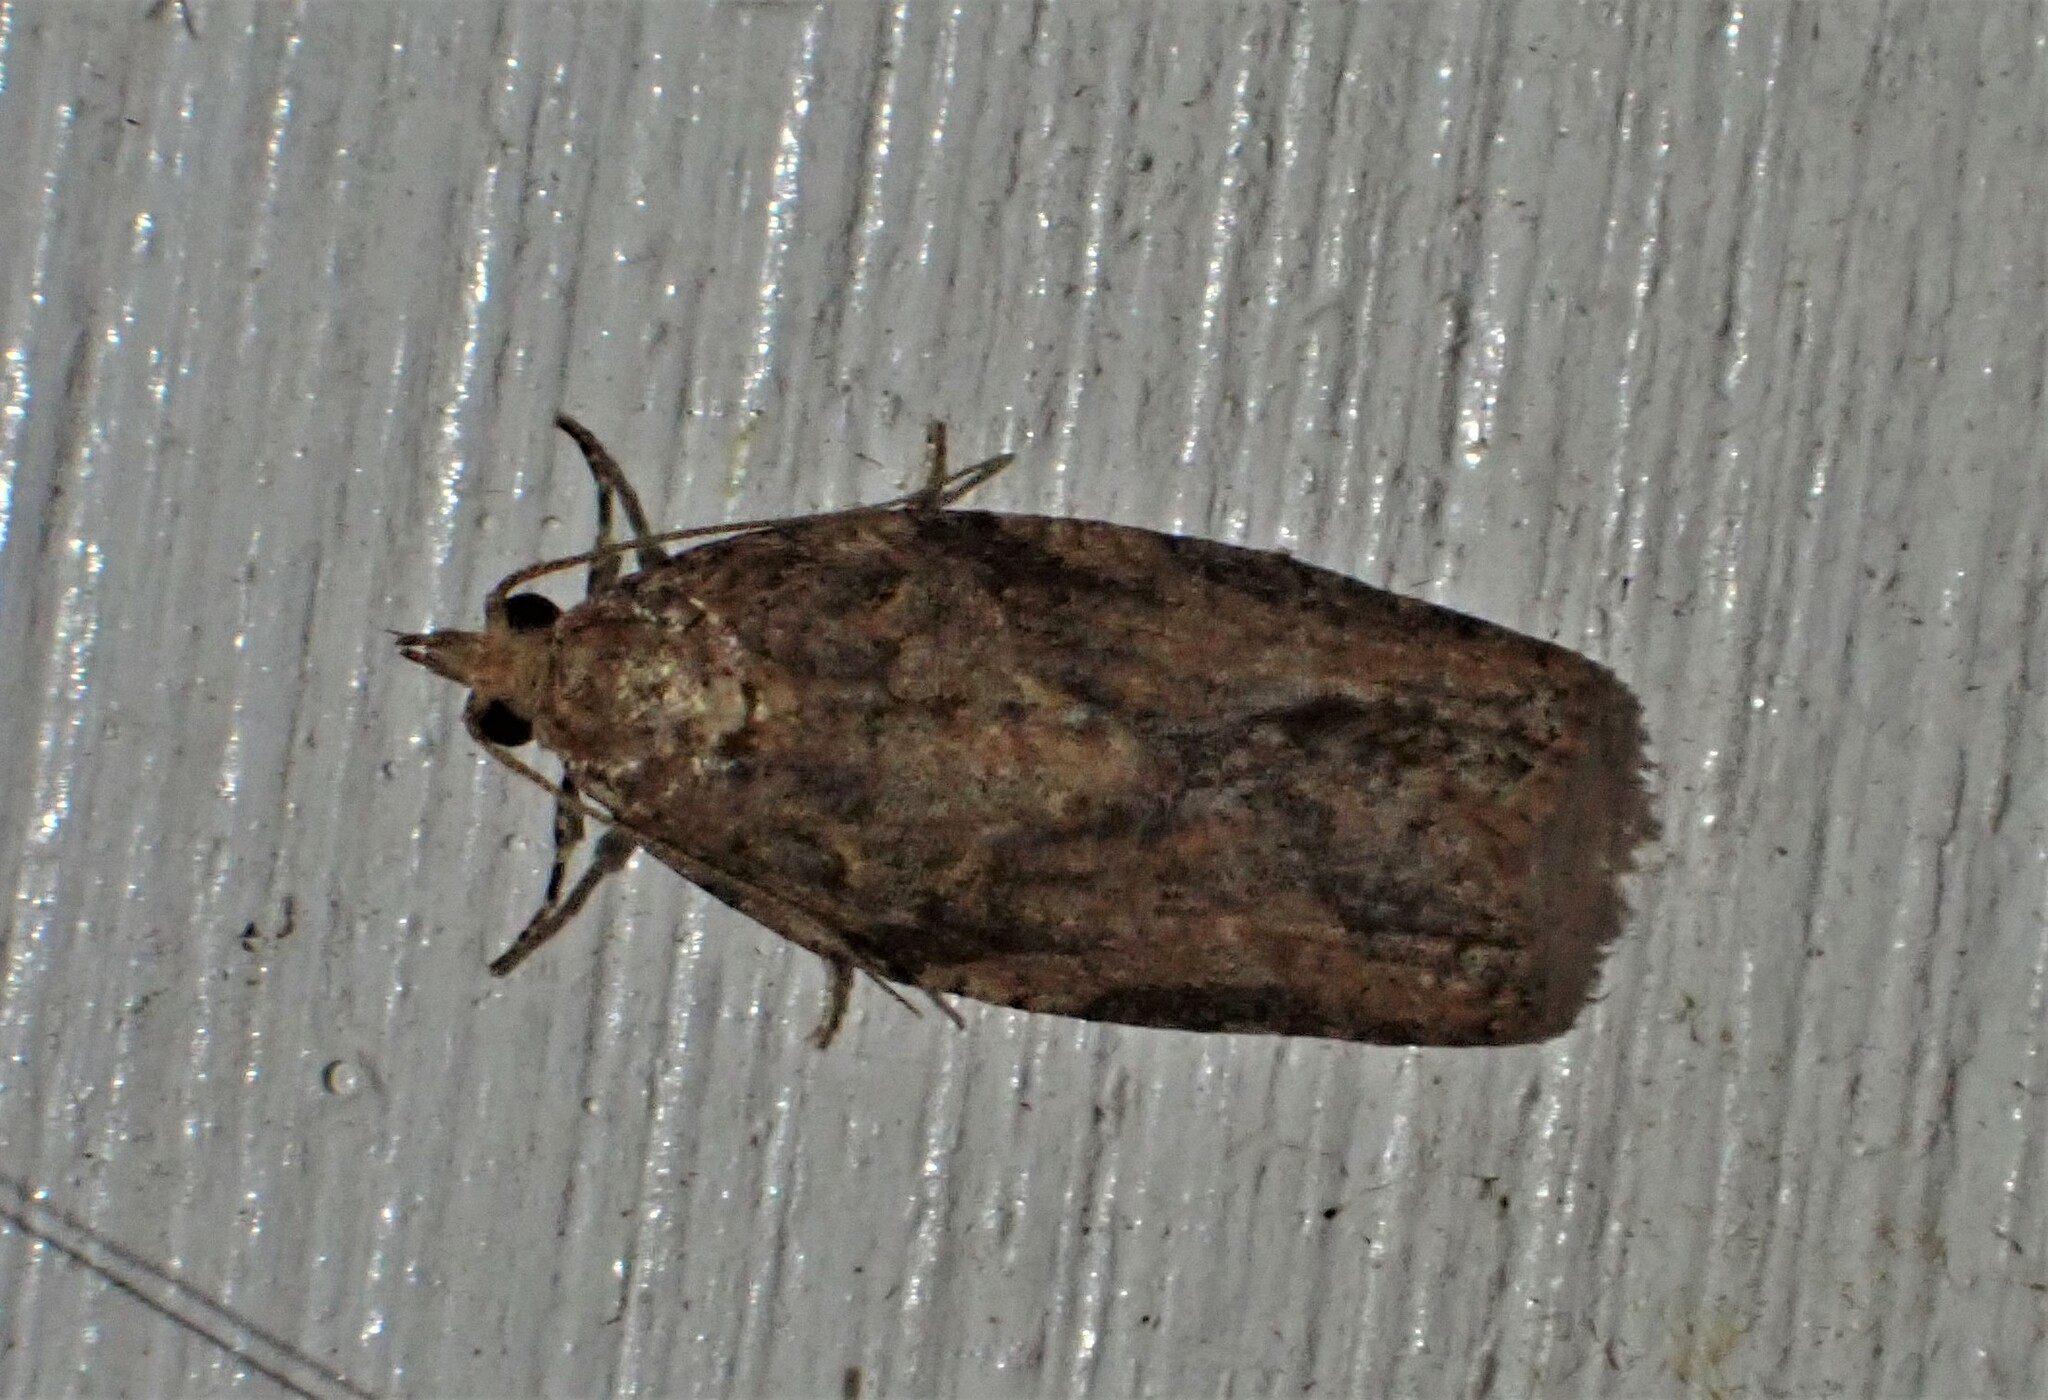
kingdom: Animalia
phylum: Arthropoda
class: Insecta
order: Lepidoptera
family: Tortricidae
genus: Epiphyas
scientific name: Epiphyas postvittana
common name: Light brown apple moth
